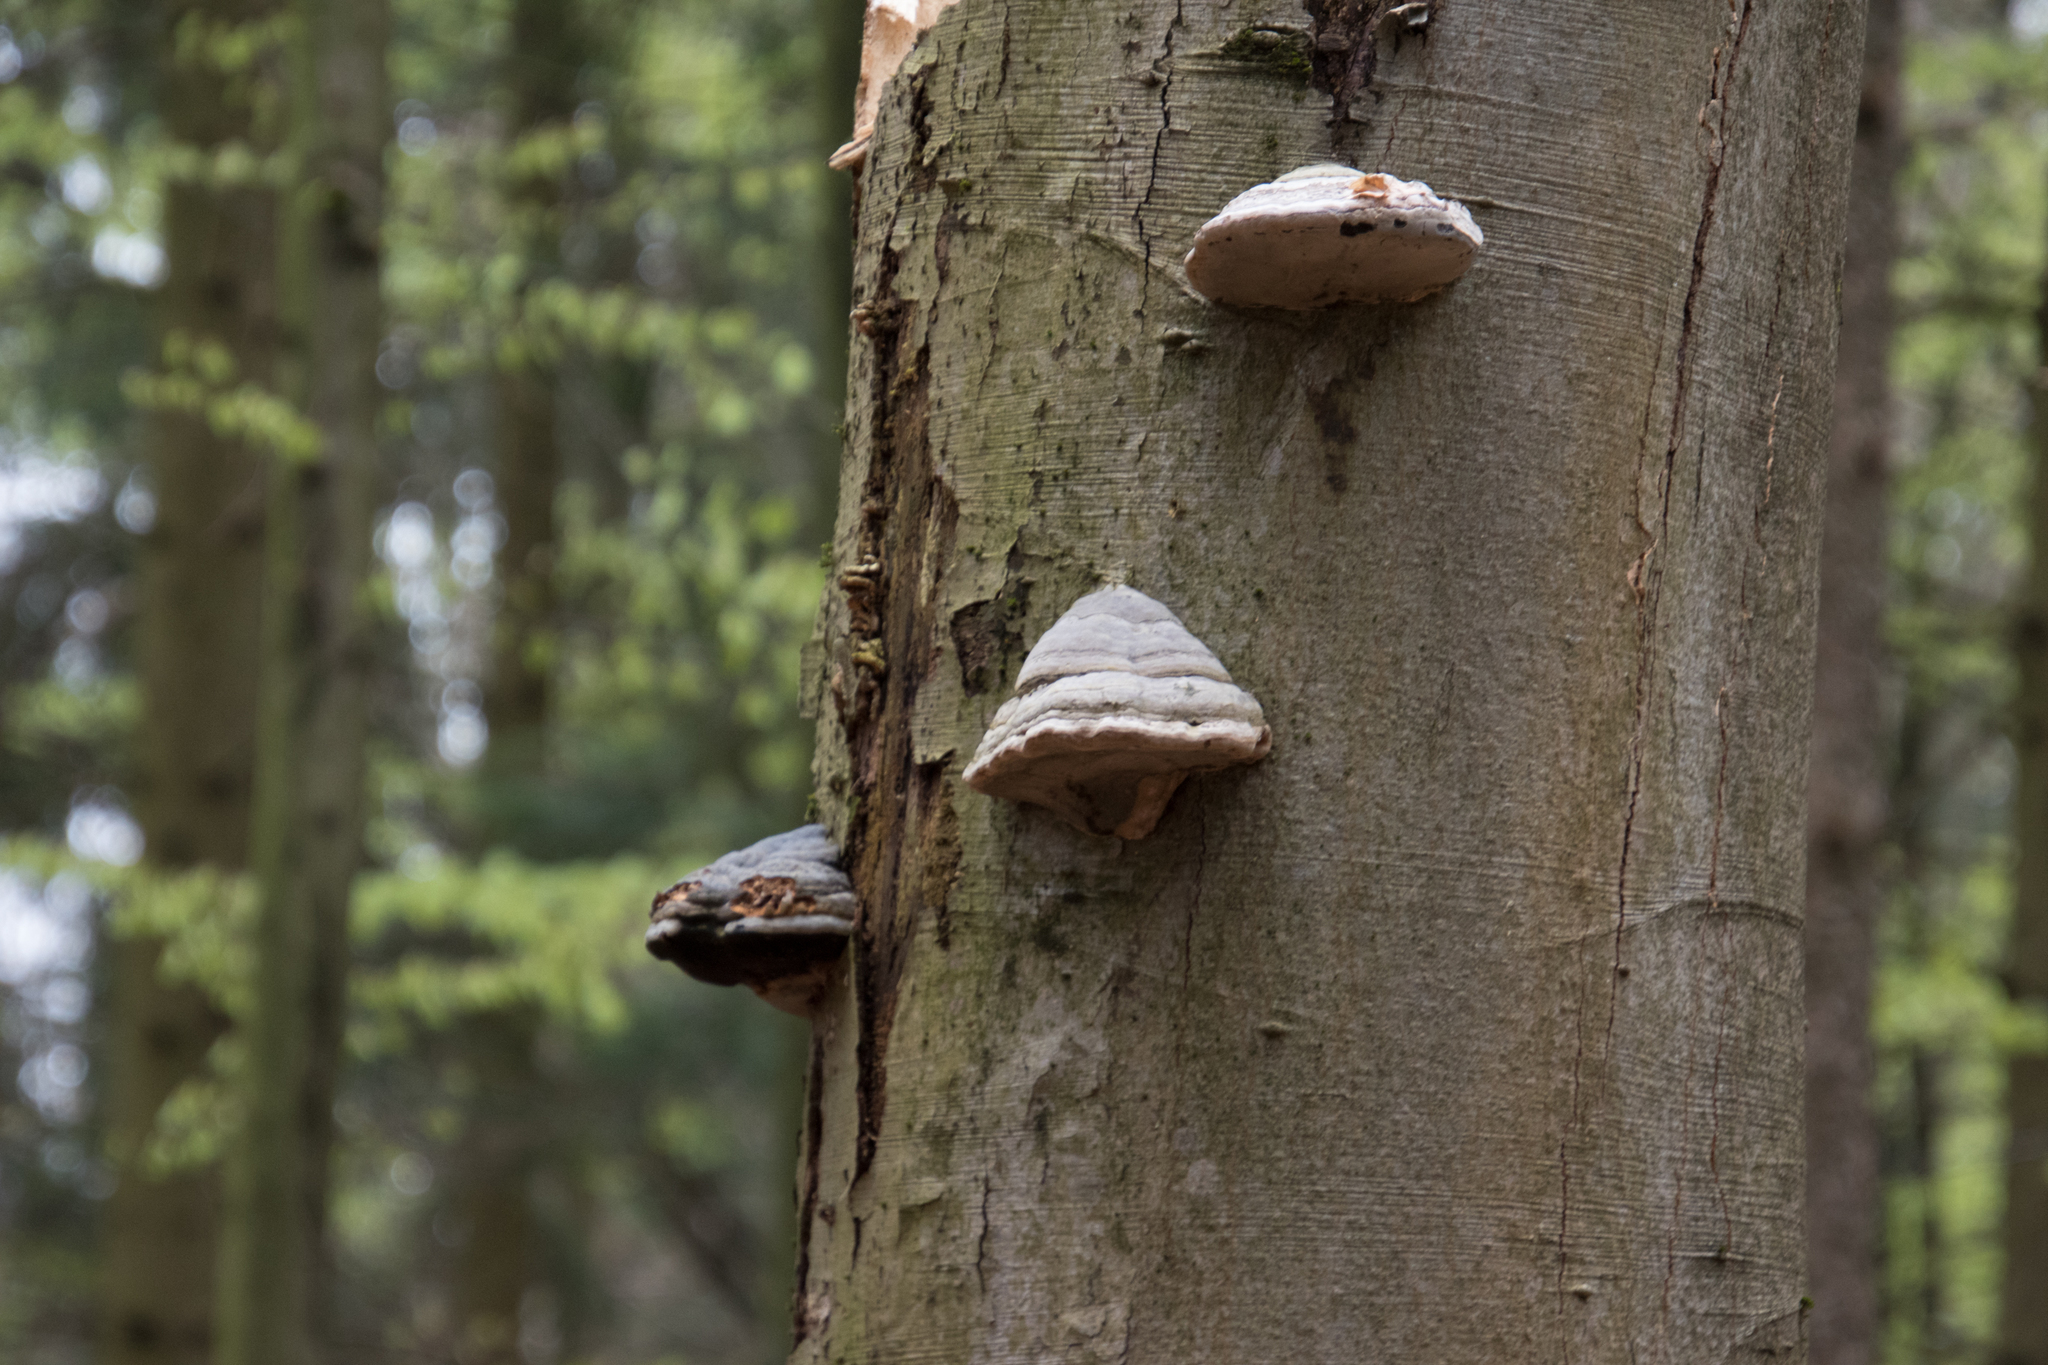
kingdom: Fungi
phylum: Basidiomycota
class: Agaricomycetes
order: Polyporales
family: Polyporaceae
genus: Fomes
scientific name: Fomes fomentarius
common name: Hoof fungus
